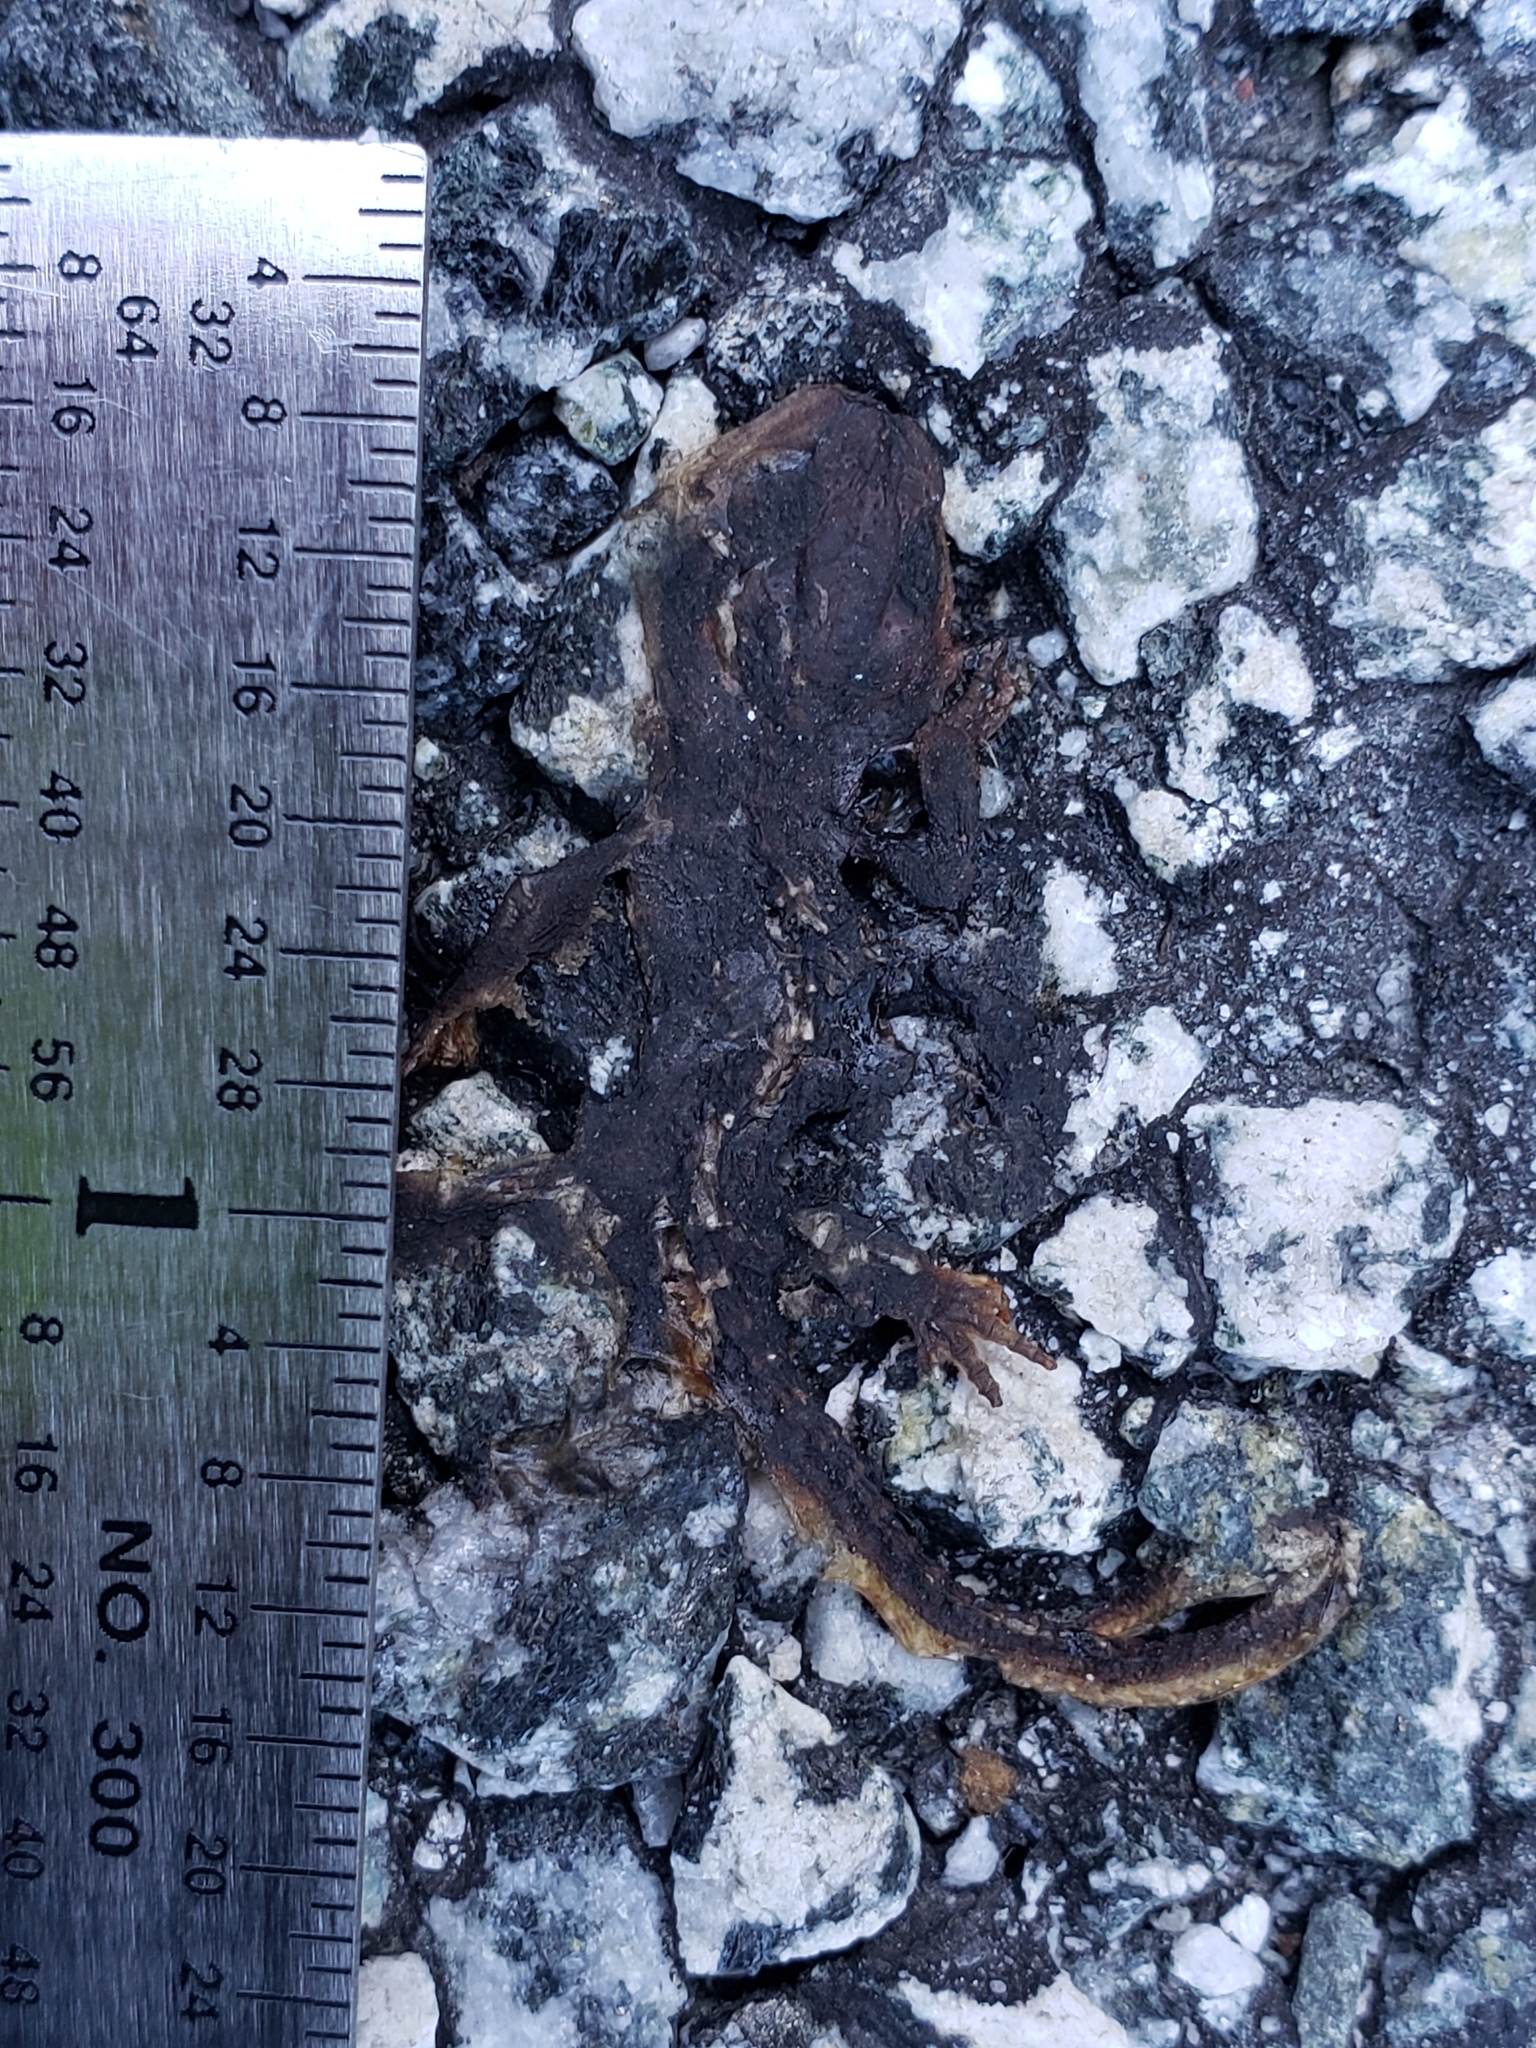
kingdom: Animalia
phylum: Chordata
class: Amphibia
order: Caudata
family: Salamandridae
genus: Taricha
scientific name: Taricha
